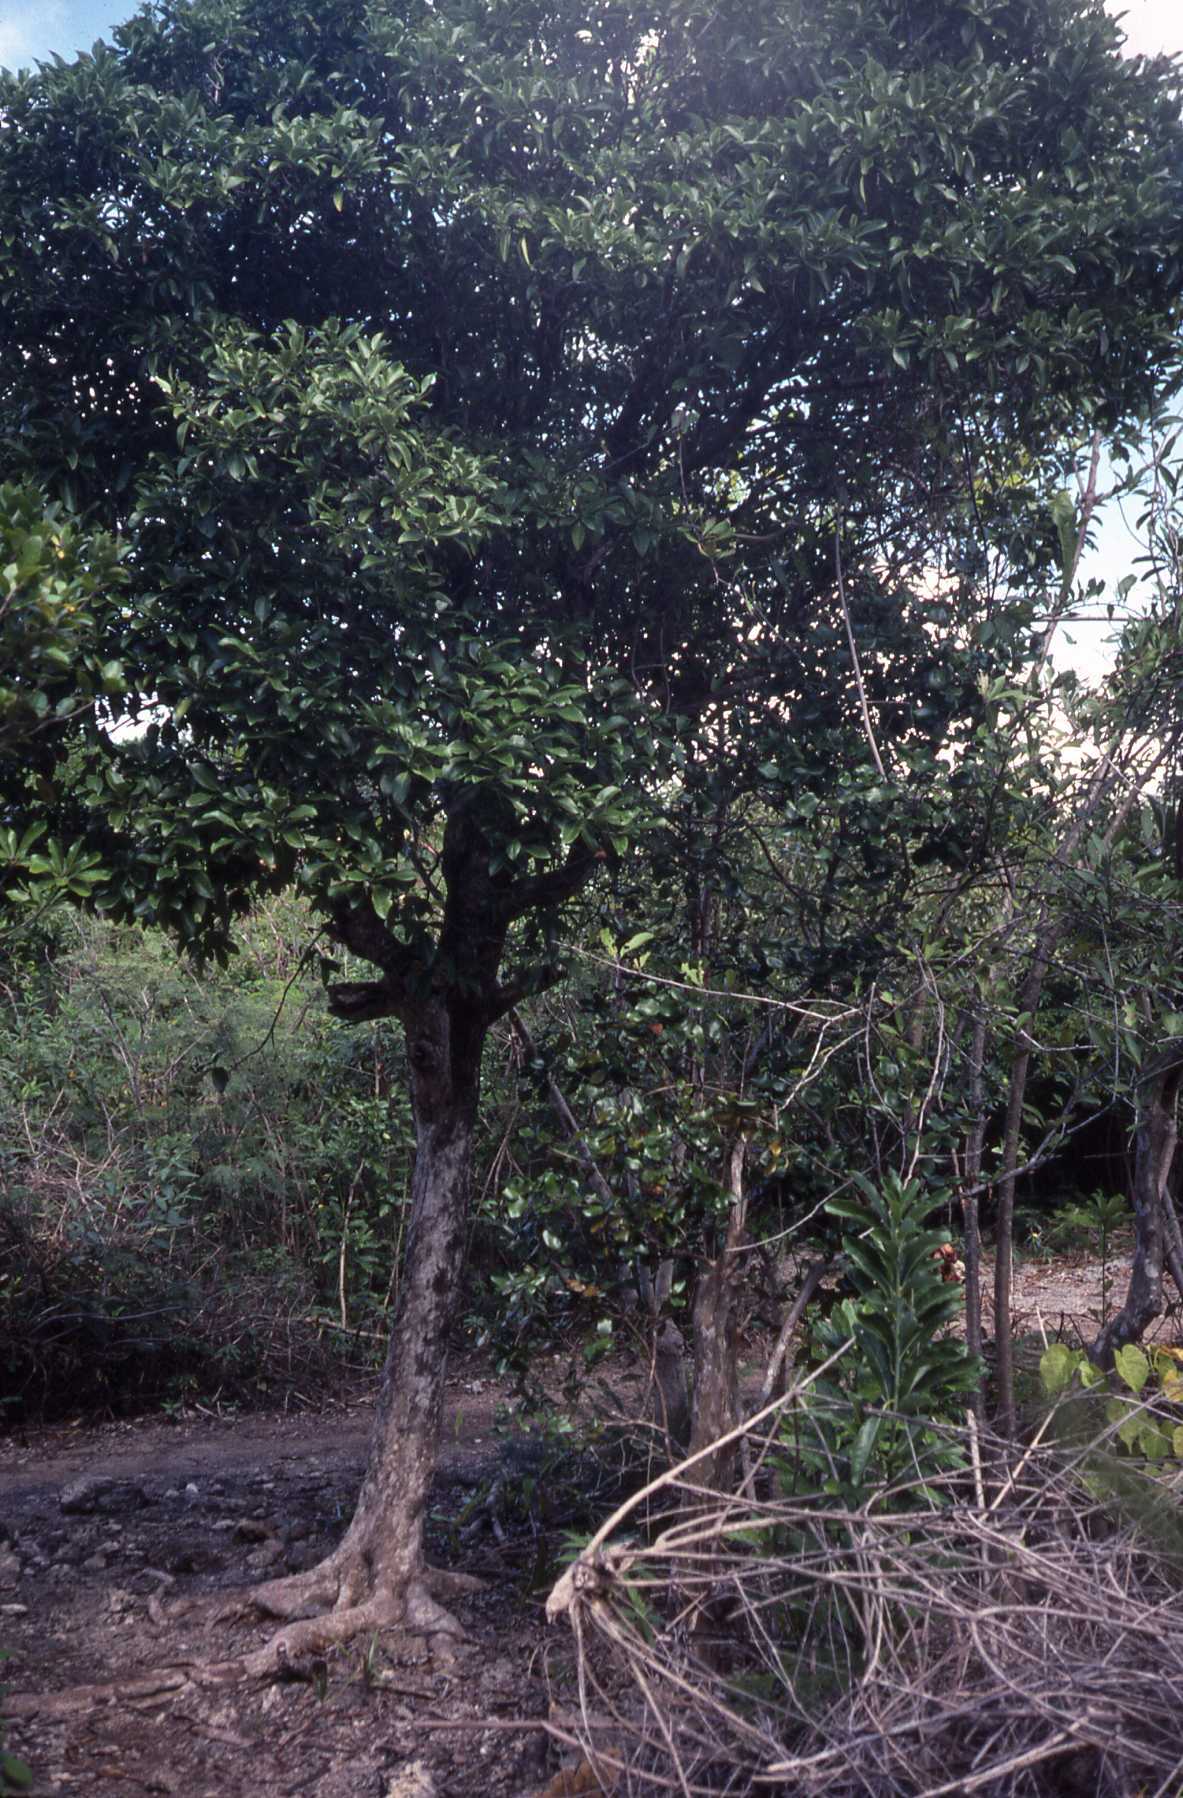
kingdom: Plantae
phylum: Tracheophyta
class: Magnoliopsida
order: Gentianales
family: Rubiaceae
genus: Coptosperma
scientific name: Coptosperma borbonicum
